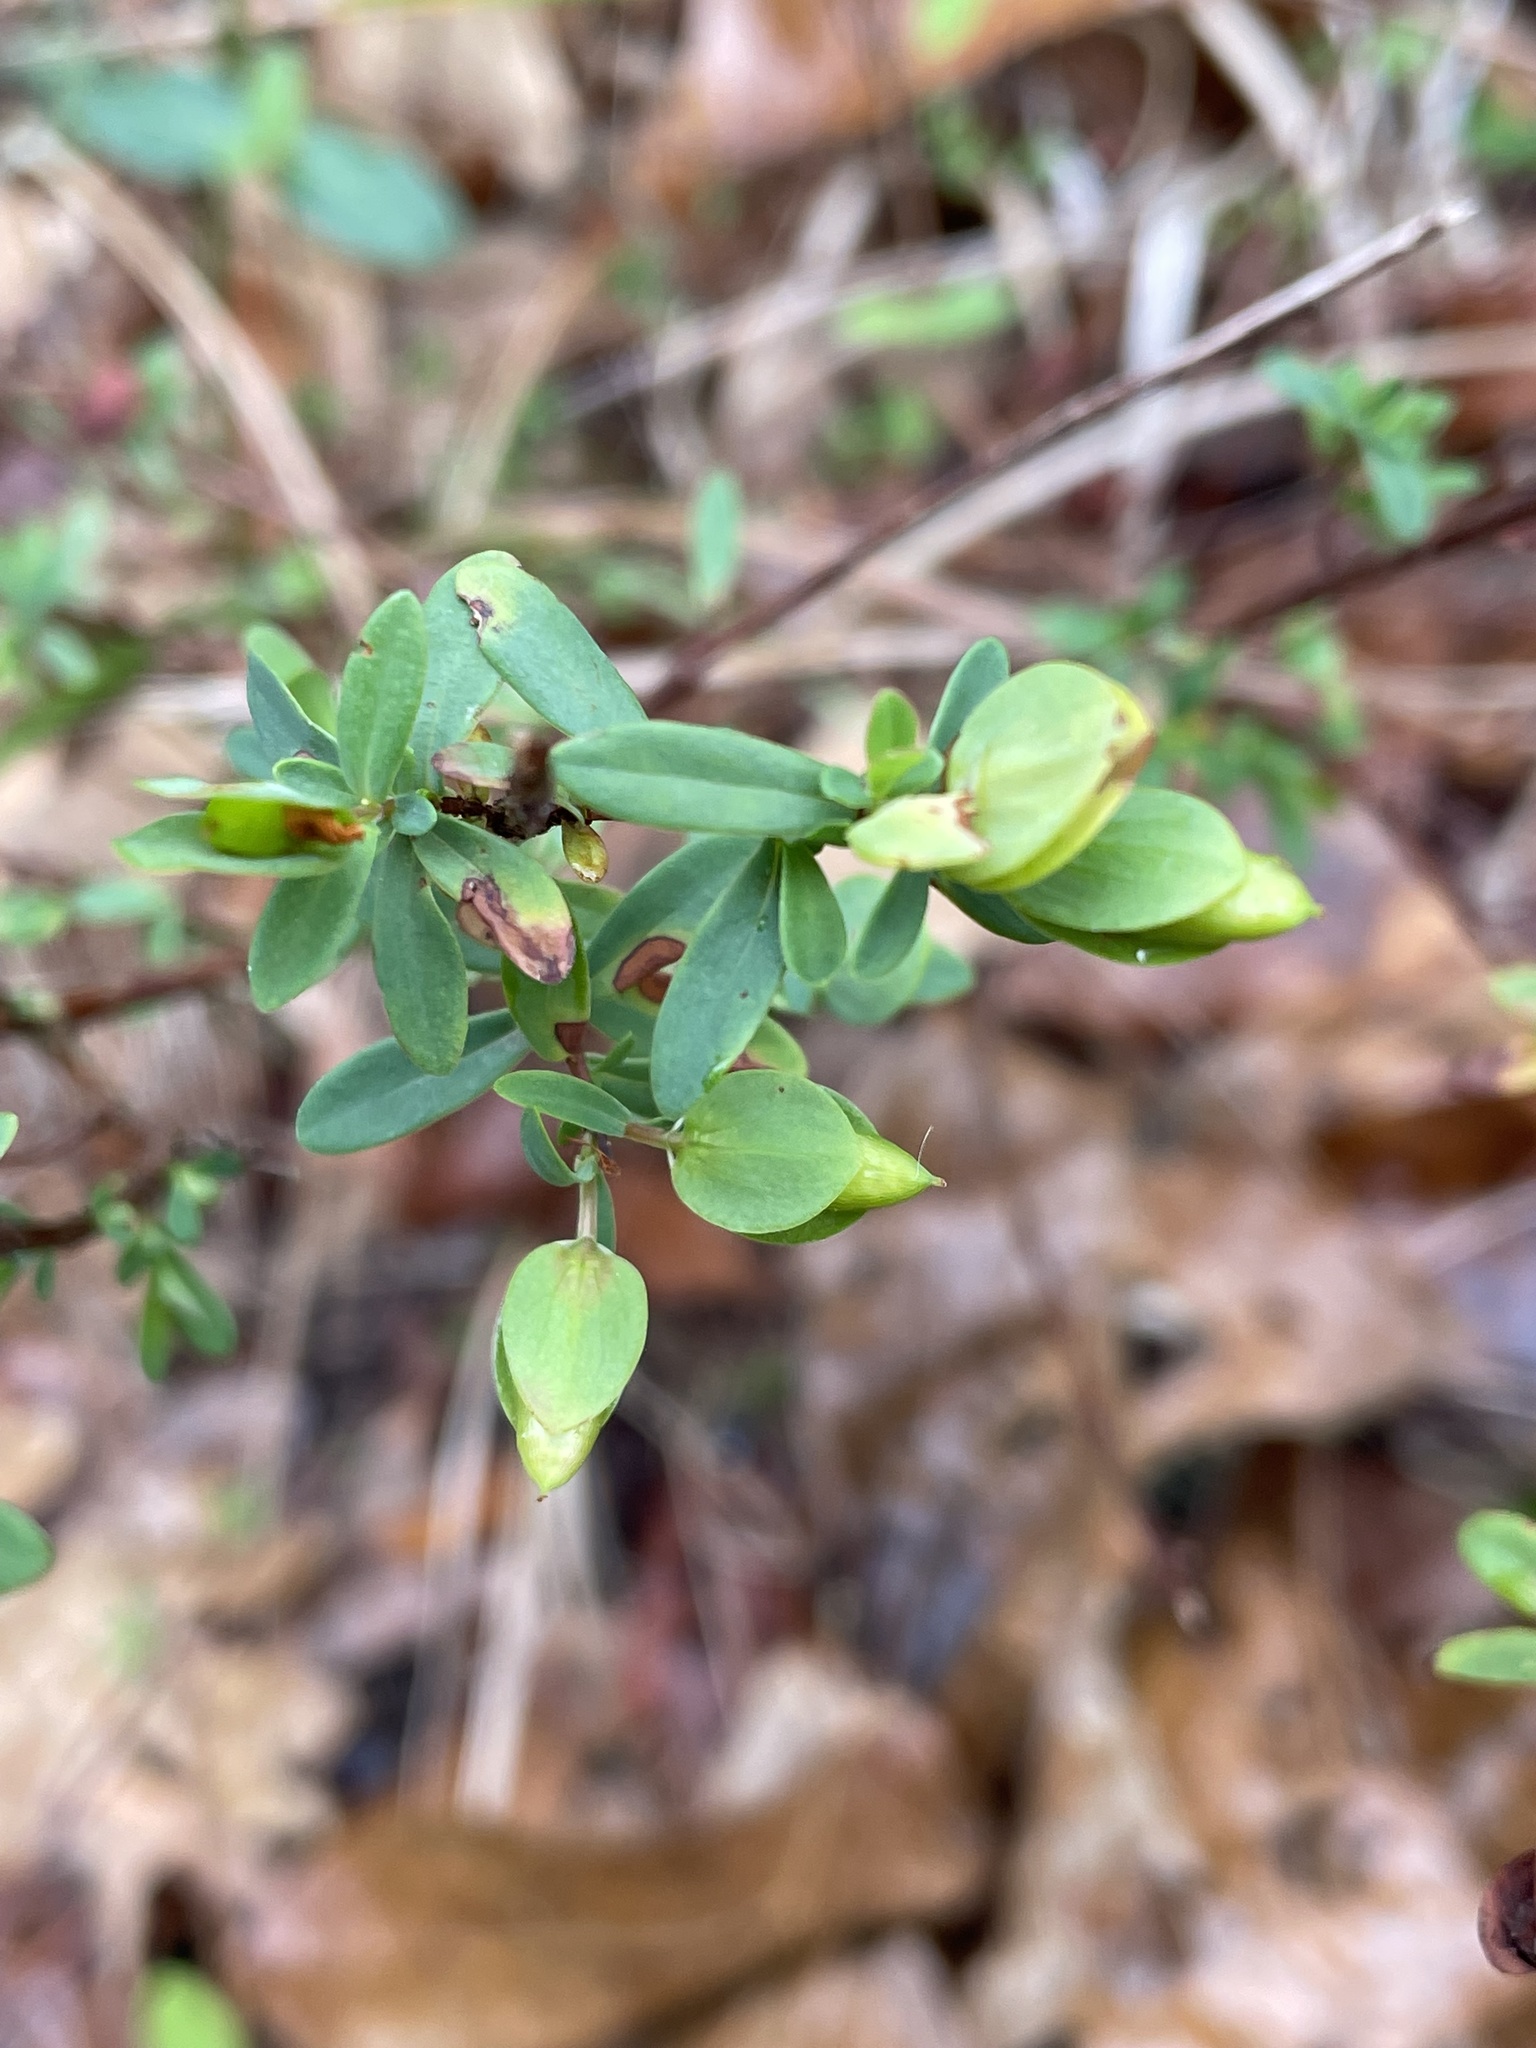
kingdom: Plantae
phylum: Tracheophyta
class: Magnoliopsida
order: Malpighiales
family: Hypericaceae
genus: Hypericum
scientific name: Hypericum hypericoides
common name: St. andrew's cross
